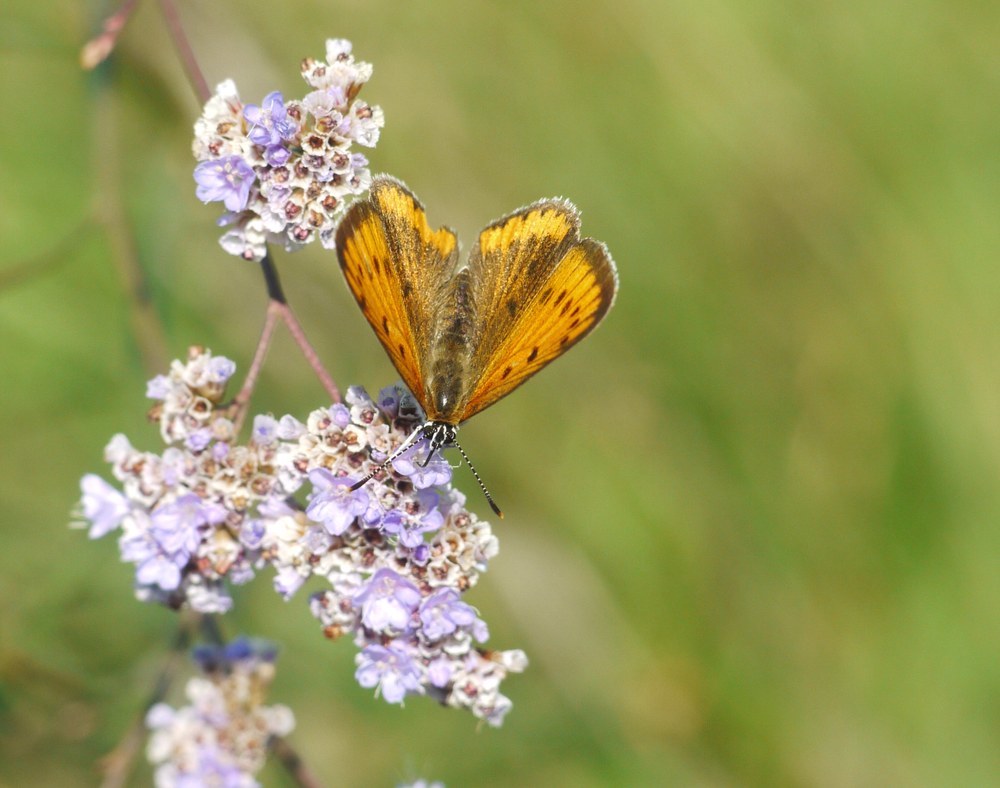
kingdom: Animalia
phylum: Arthropoda
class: Insecta
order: Lepidoptera
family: Lycaenidae
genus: Lycaena
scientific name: Lycaena dispar
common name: Large copper
